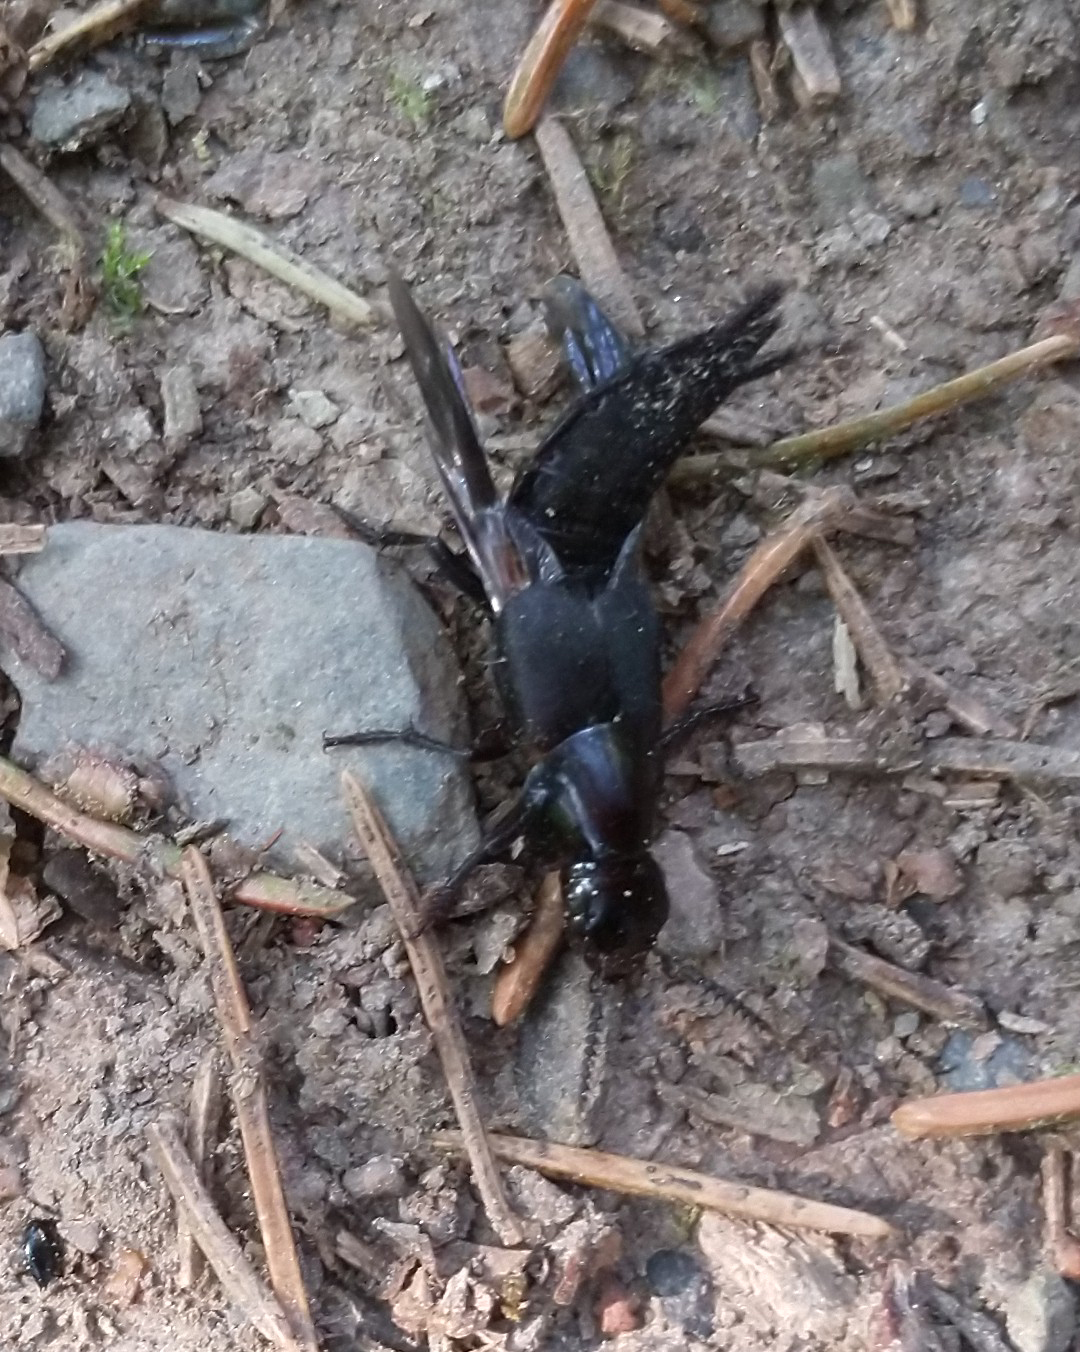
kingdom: Animalia
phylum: Arthropoda
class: Insecta
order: Coleoptera
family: Staphylinidae
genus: Quedius
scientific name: Quedius dilatatus
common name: Hornet rove-beetle
